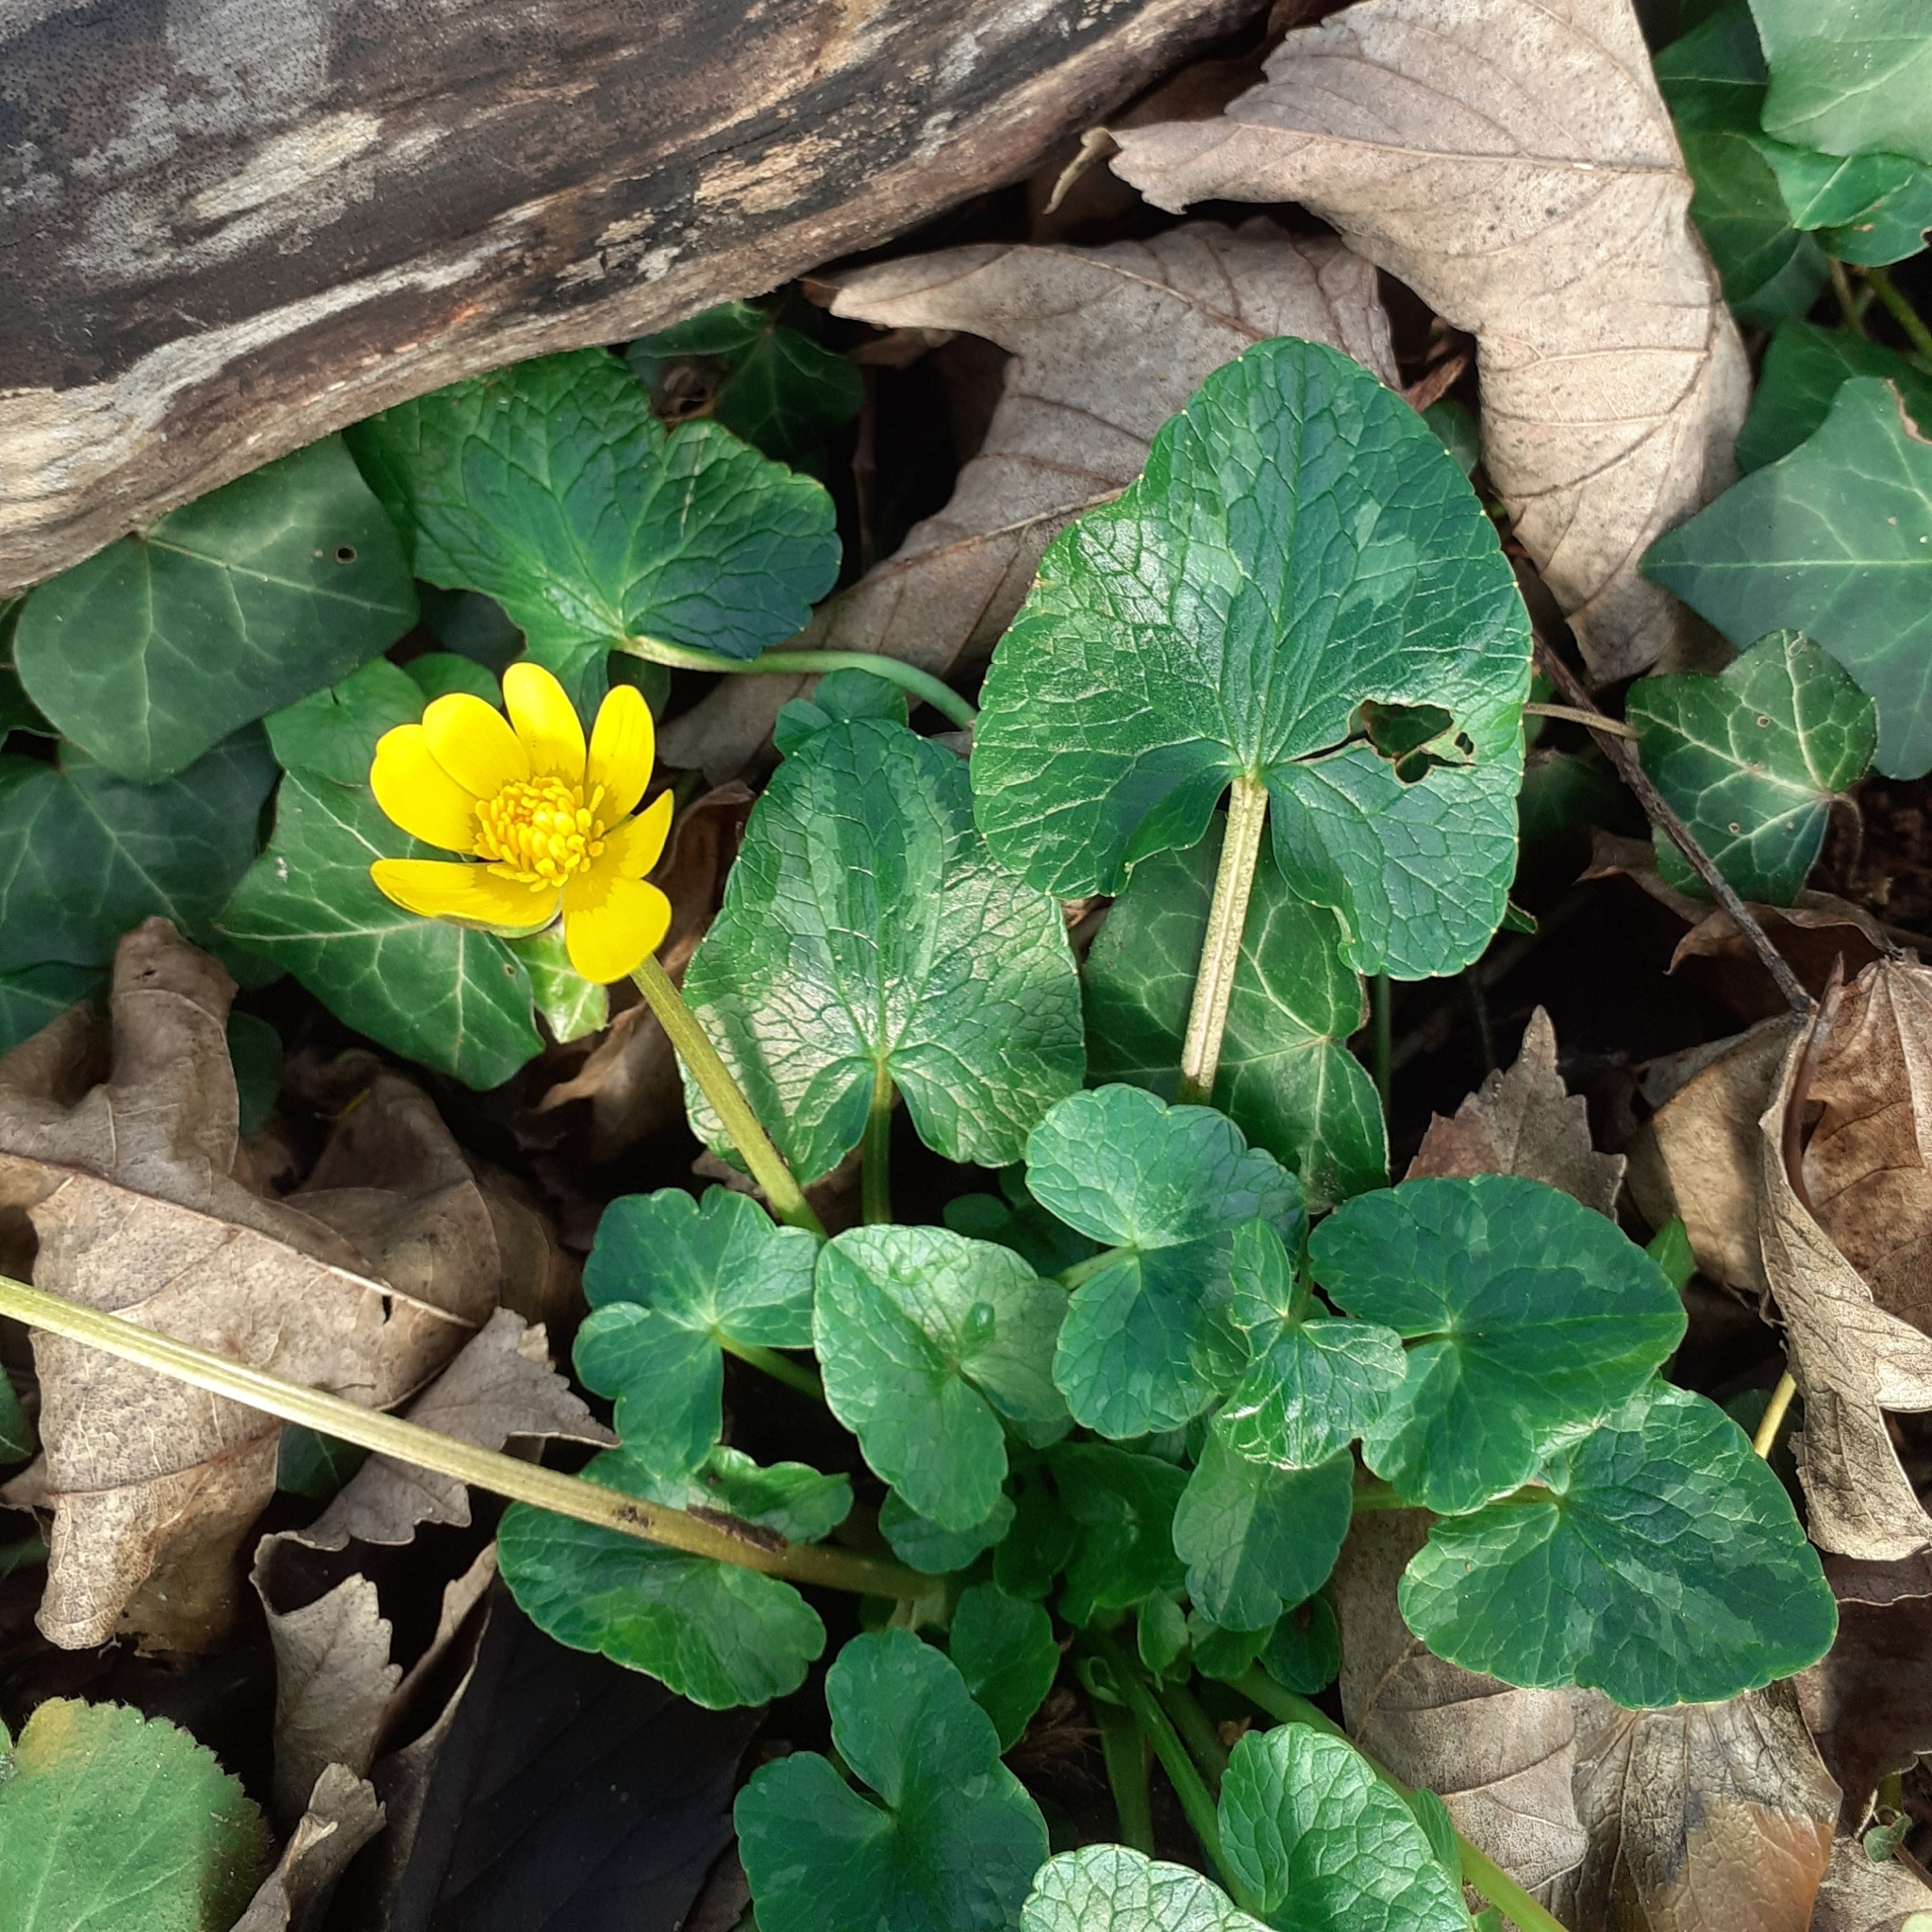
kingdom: Plantae
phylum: Tracheophyta
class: Magnoliopsida
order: Ranunculales
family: Ranunculaceae
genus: Ficaria
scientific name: Ficaria verna
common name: Lesser celandine
